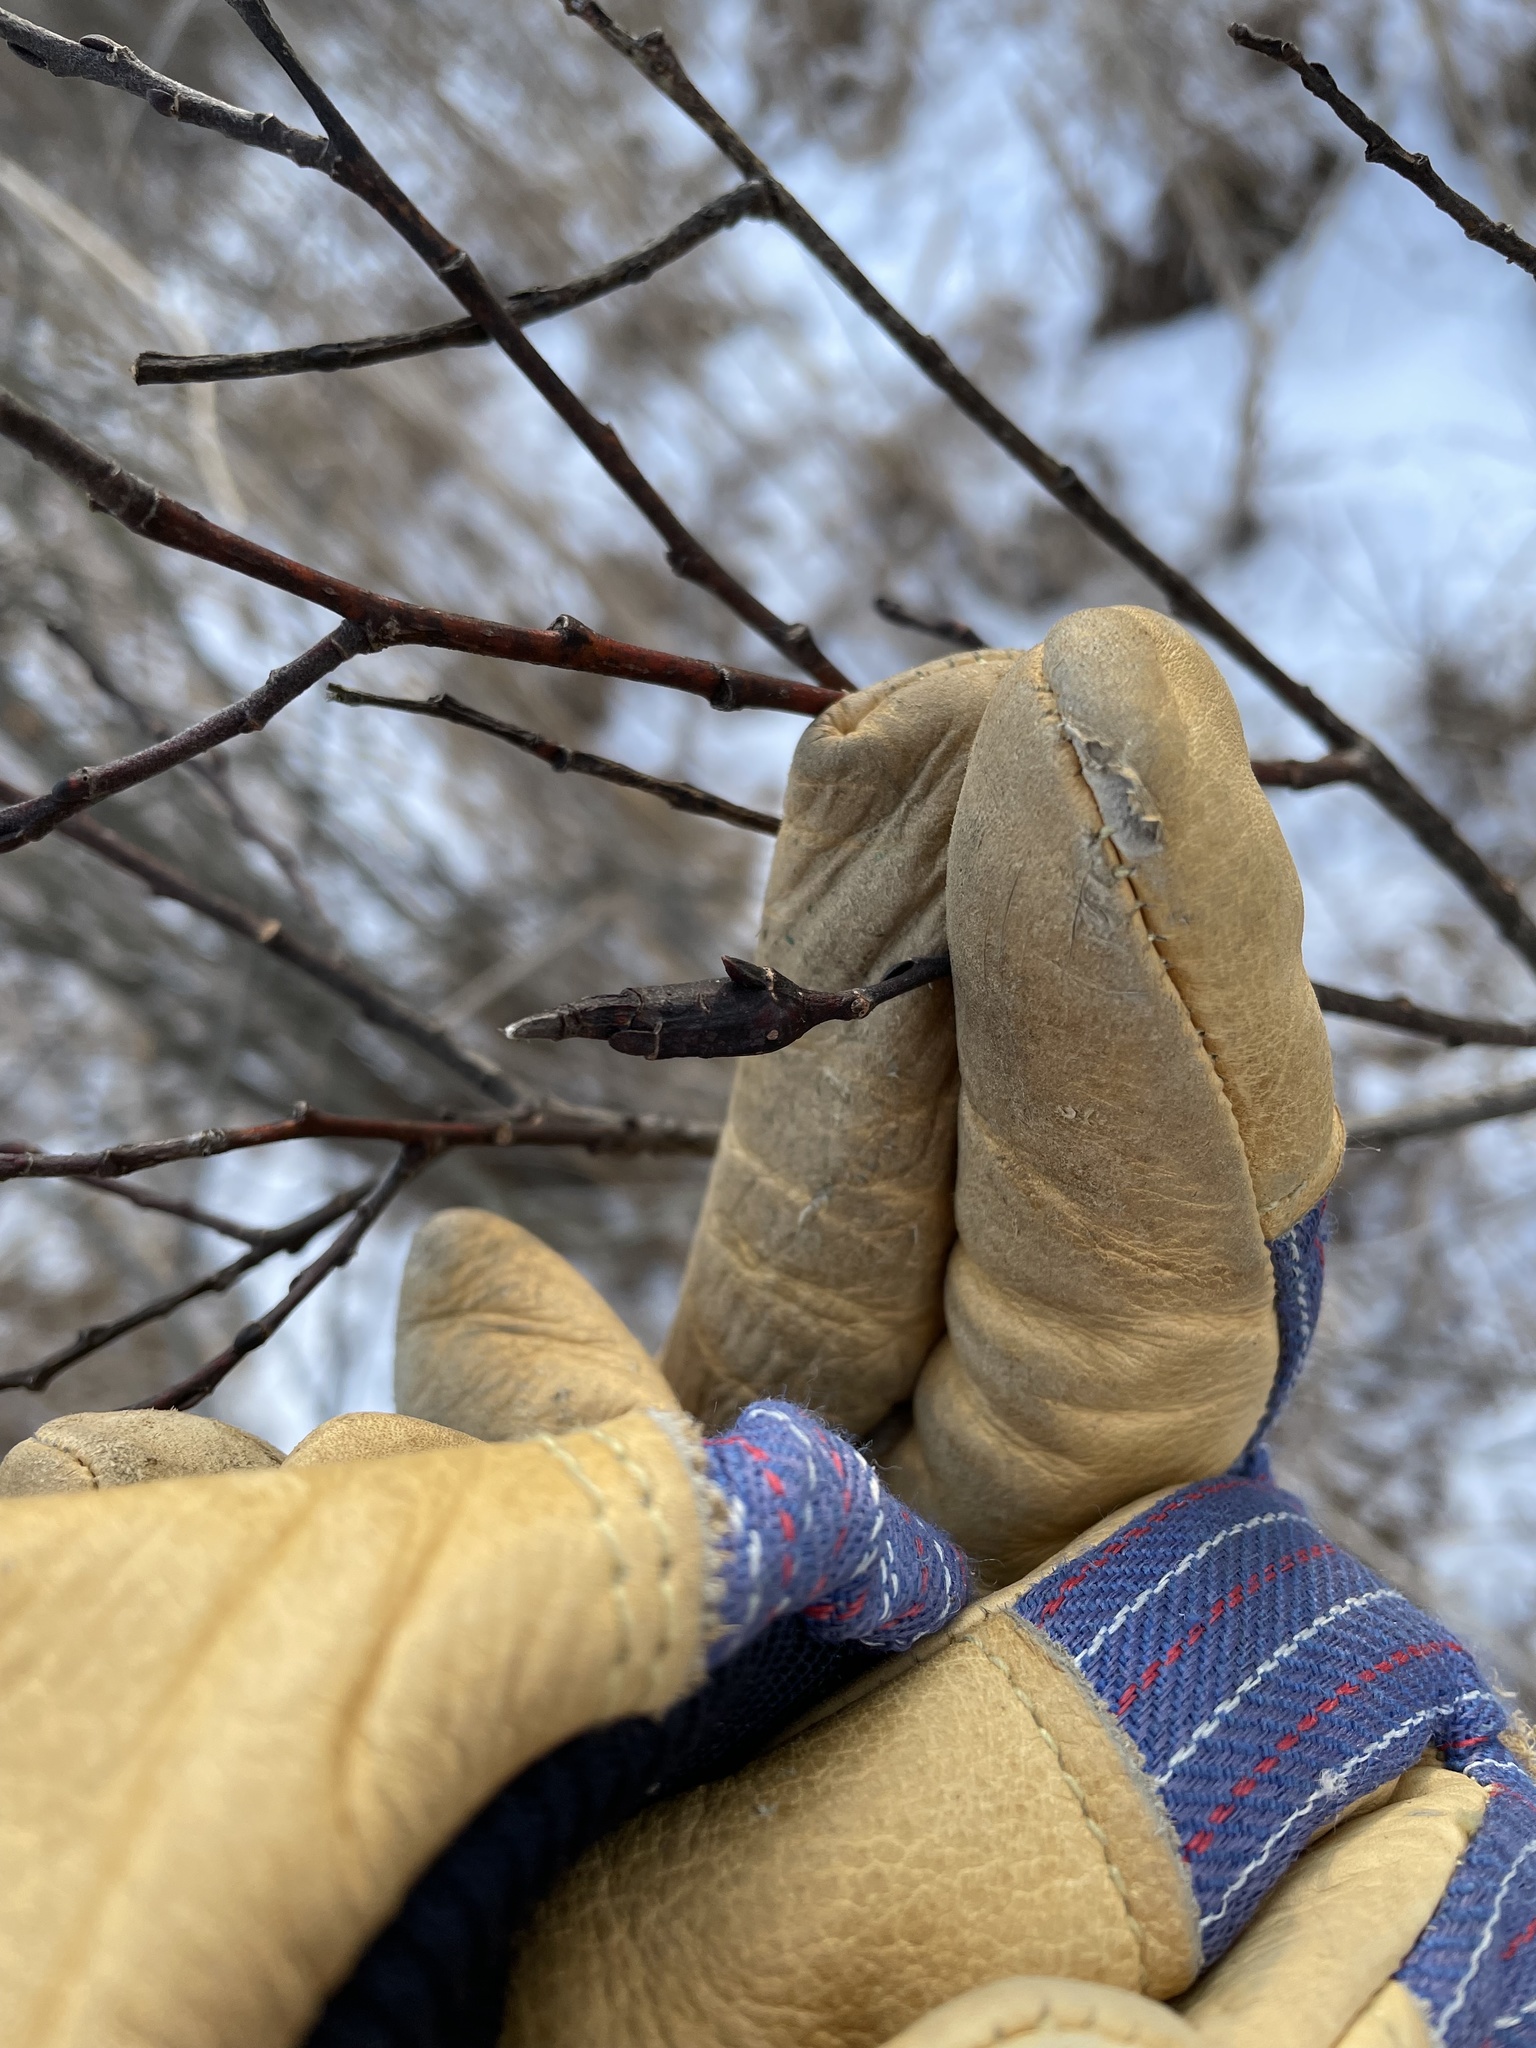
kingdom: Animalia
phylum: Arthropoda
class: Insecta
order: Diptera
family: Cecidomyiidae
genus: Thecodiplosis
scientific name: Thecodiplosis pinirigidae
